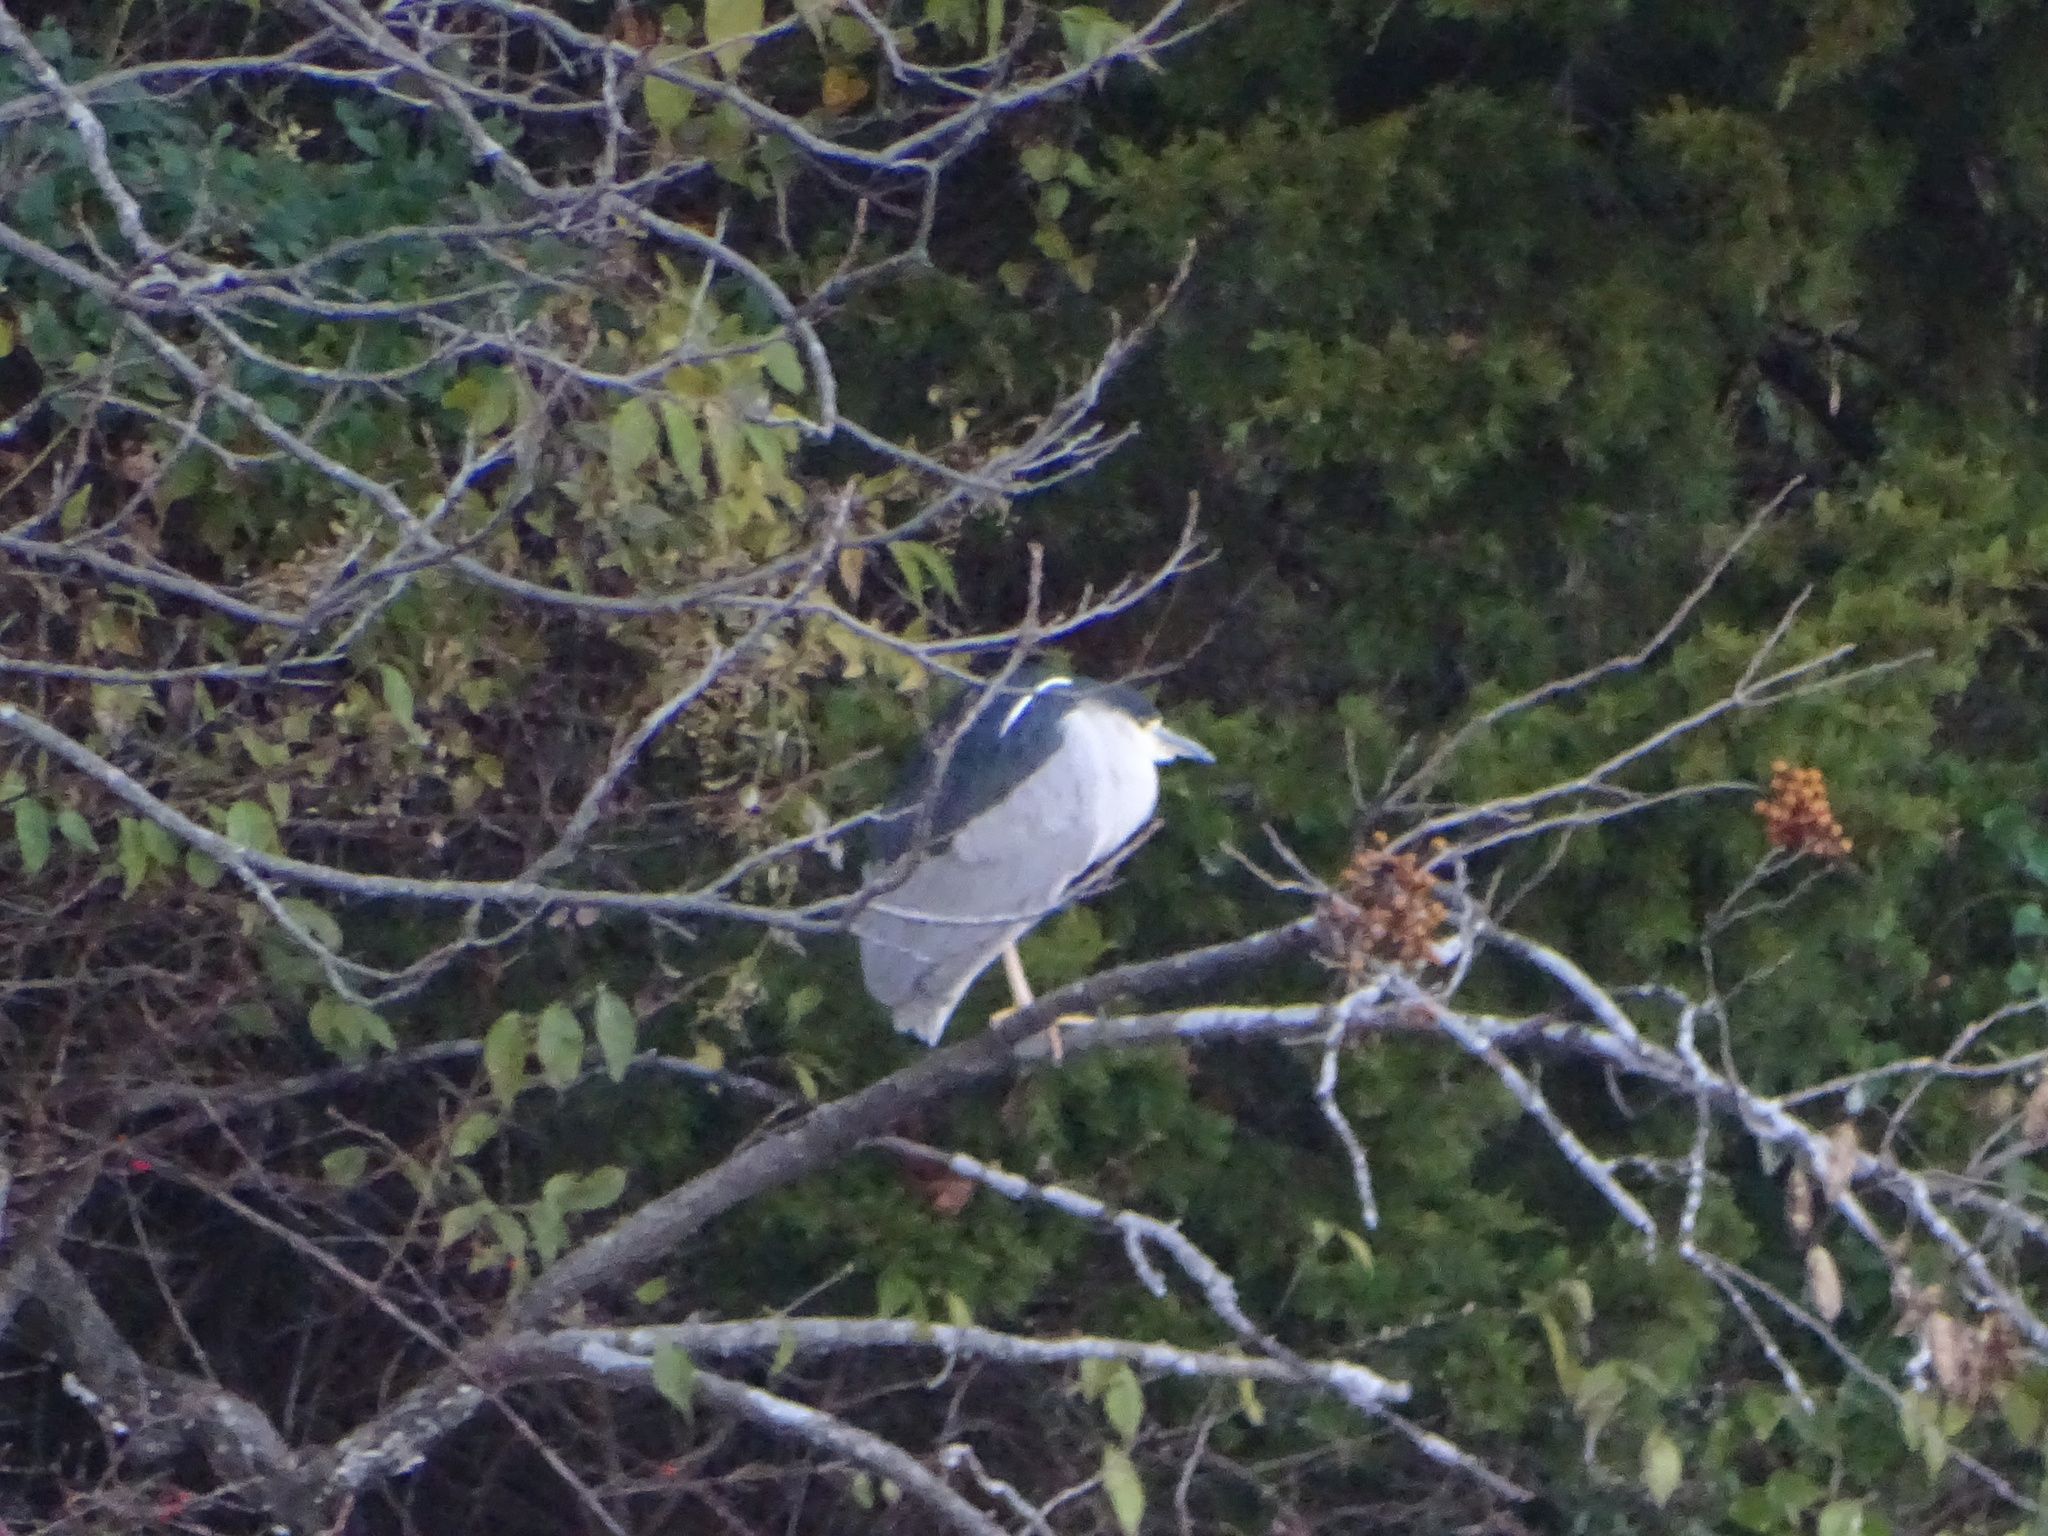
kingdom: Animalia
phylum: Chordata
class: Aves
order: Pelecaniformes
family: Ardeidae
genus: Nycticorax
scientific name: Nycticorax nycticorax
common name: Black-crowned night heron
